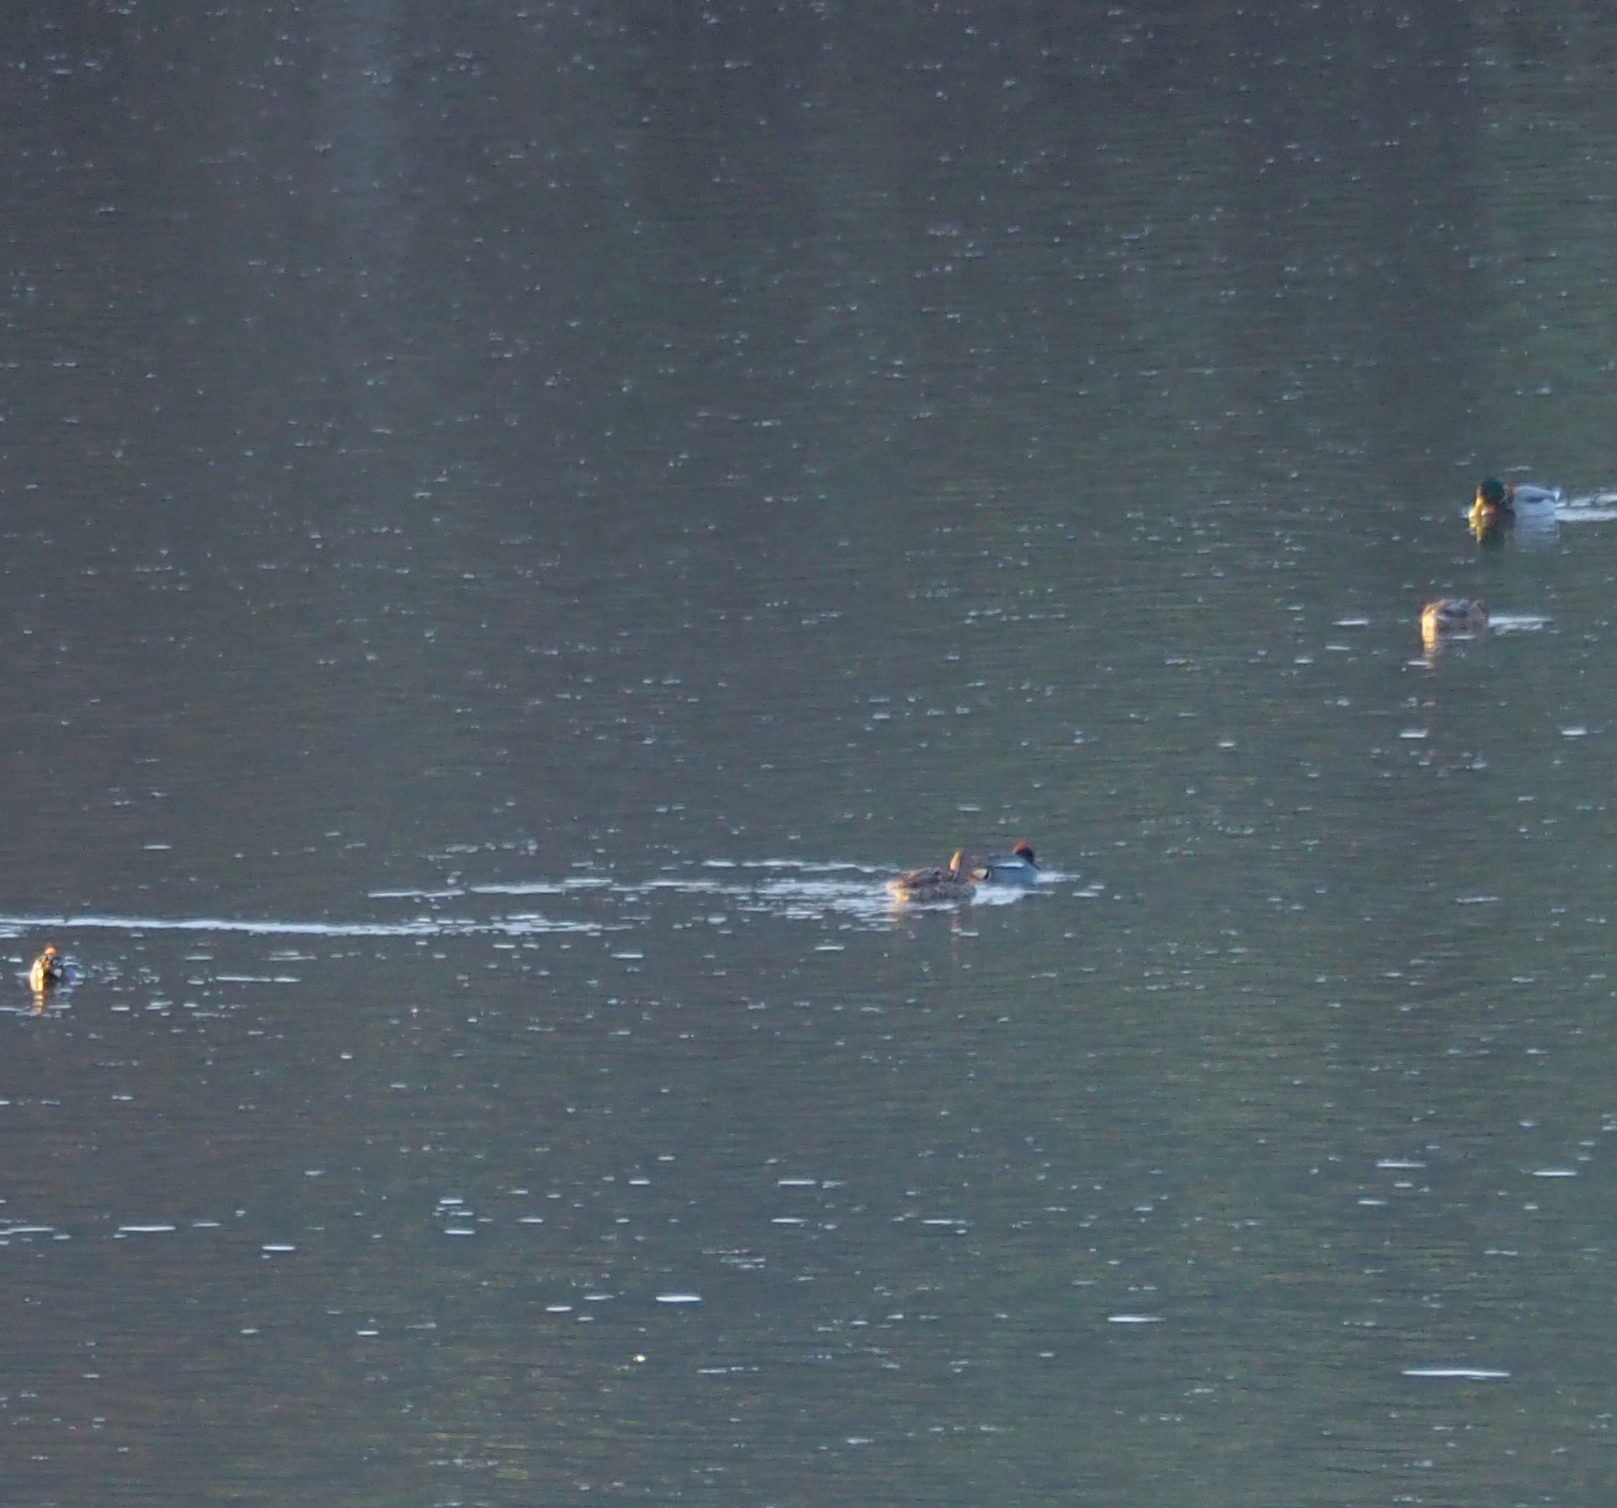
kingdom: Animalia
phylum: Chordata
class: Aves
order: Anseriformes
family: Anatidae
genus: Anas
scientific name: Anas crecca
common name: Eurasian teal
